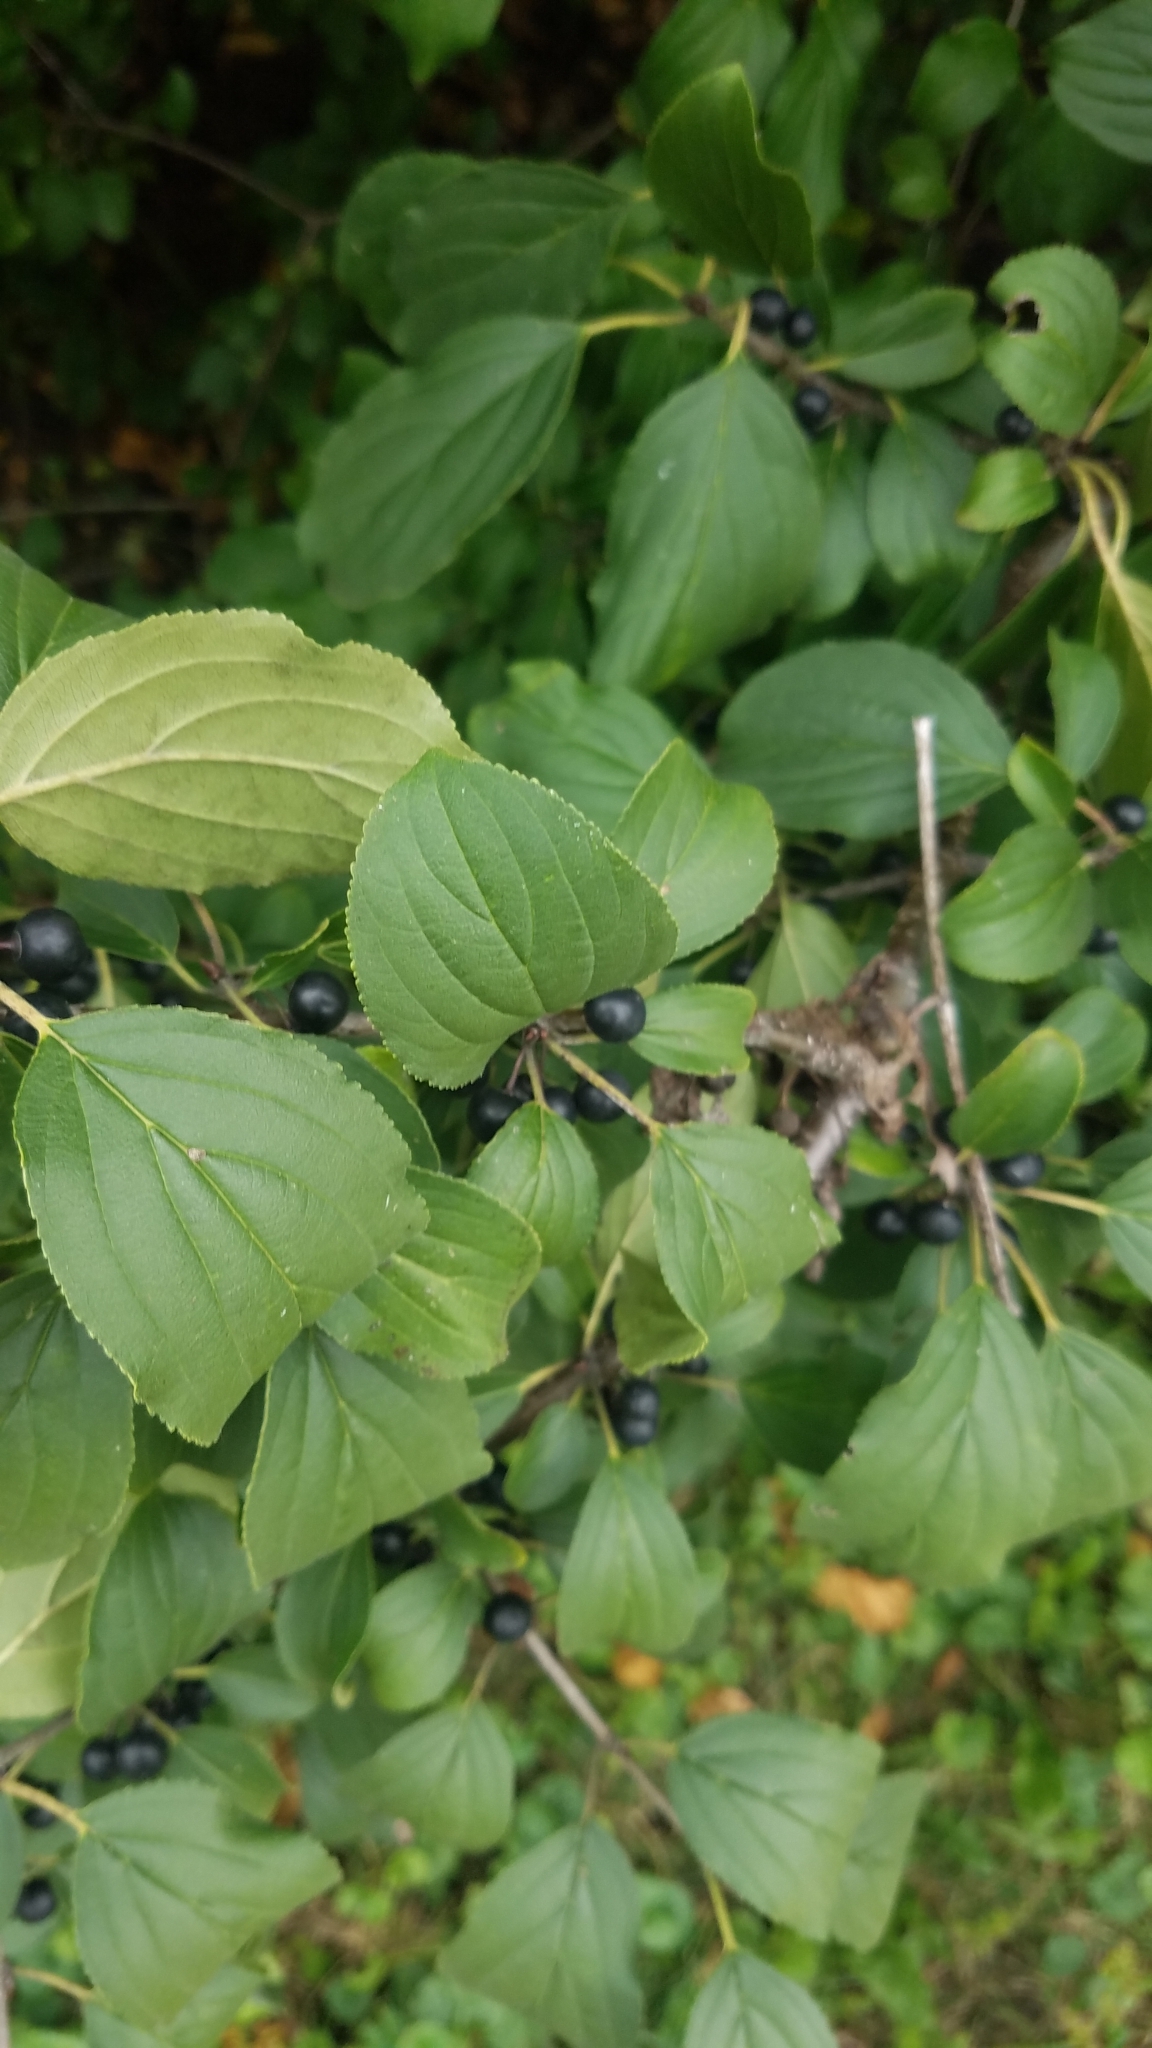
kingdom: Plantae
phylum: Tracheophyta
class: Magnoliopsida
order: Rosales
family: Rhamnaceae
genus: Rhamnus
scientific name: Rhamnus cathartica
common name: Common buckthorn
